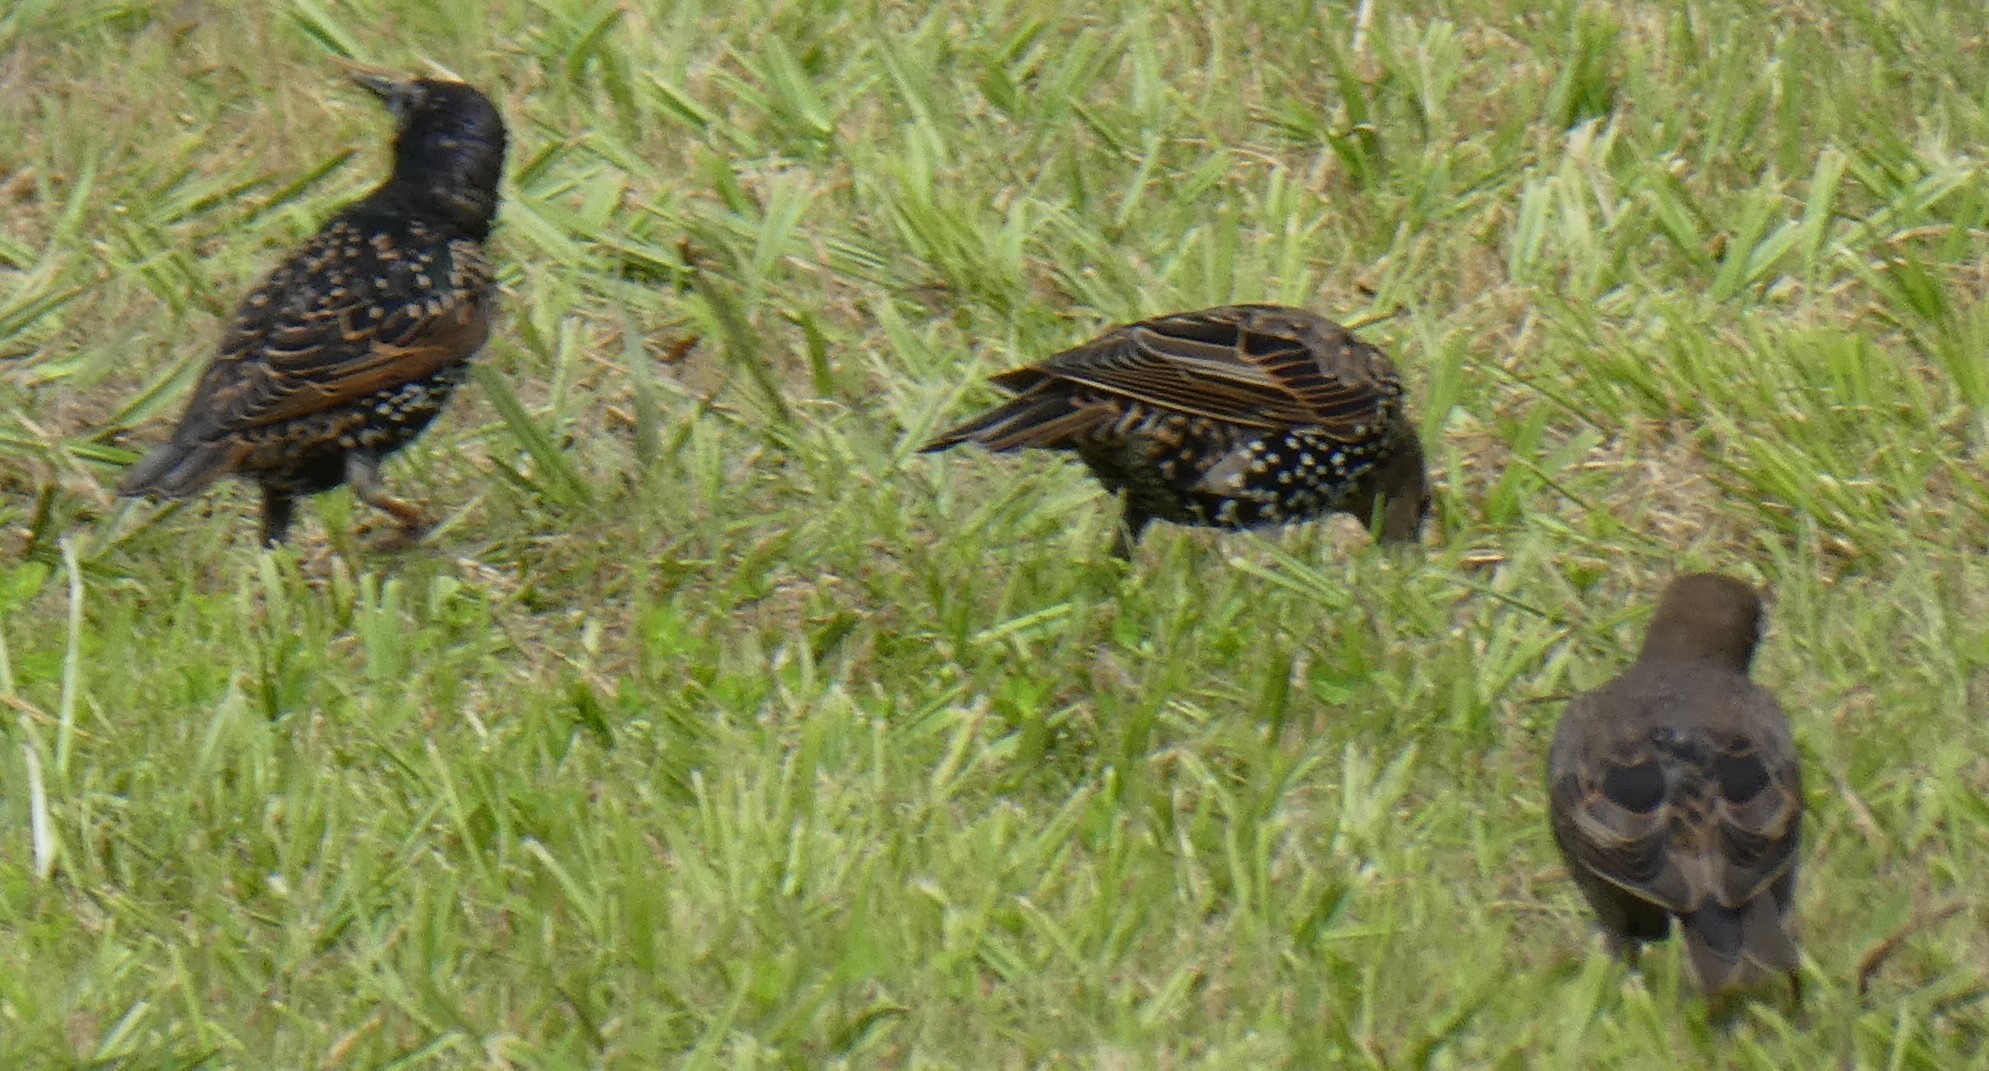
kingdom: Animalia
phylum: Chordata
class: Aves
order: Passeriformes
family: Sturnidae
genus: Sturnus
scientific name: Sturnus vulgaris
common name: Common starling
